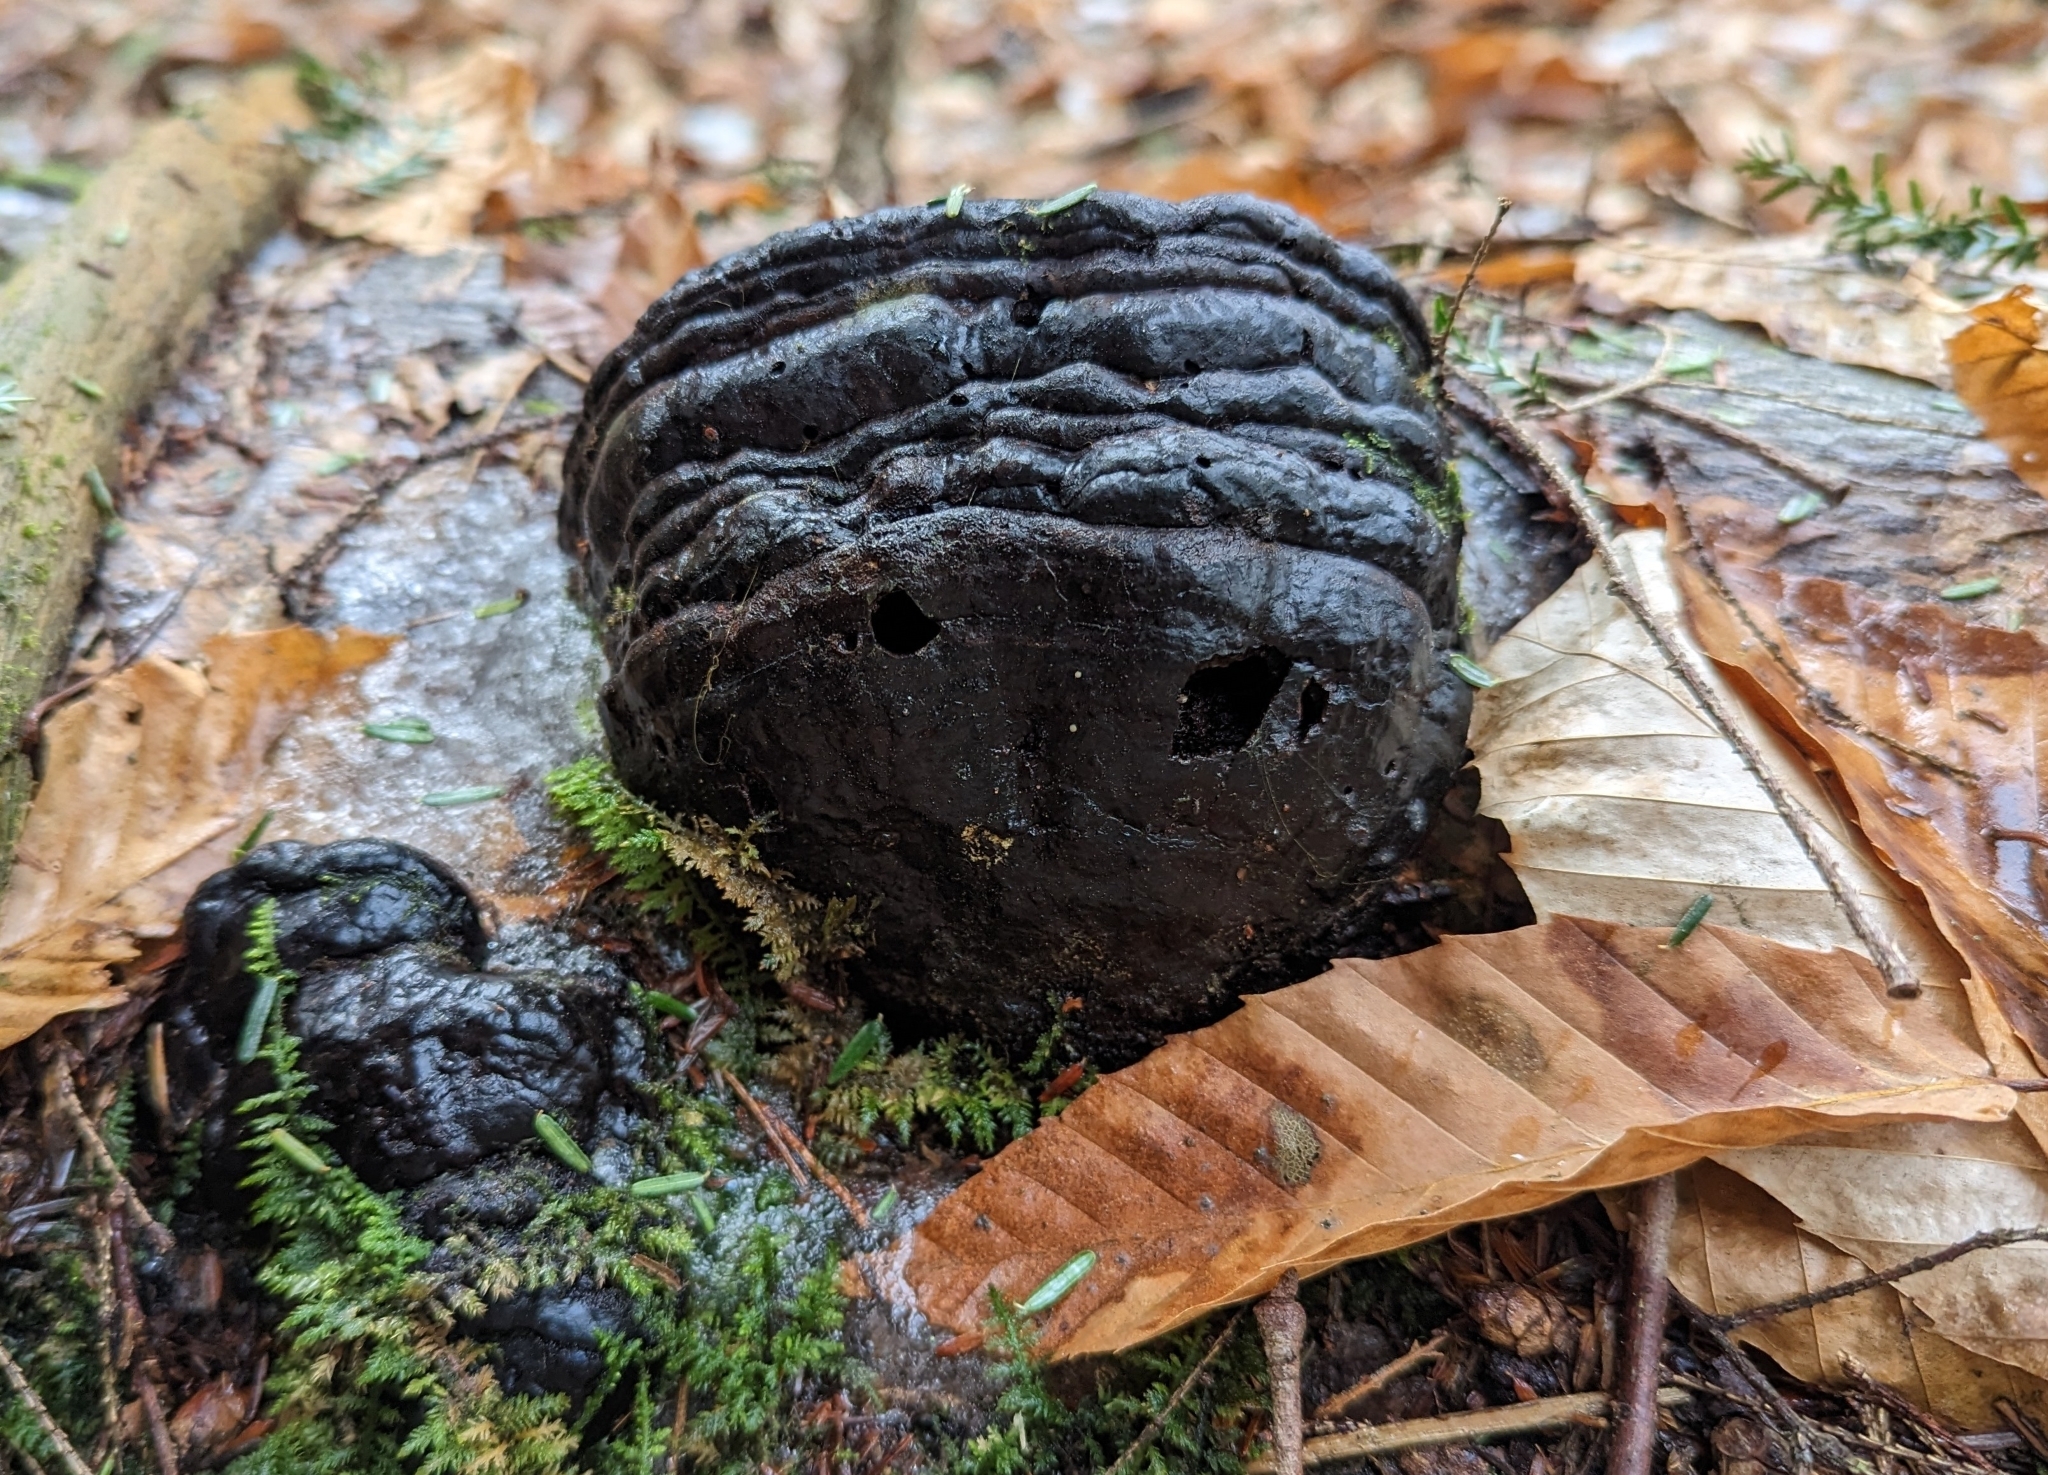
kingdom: Fungi
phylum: Basidiomycota
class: Agaricomycetes
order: Polyporales
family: Polyporaceae
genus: Fomes
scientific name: Fomes fomentarius
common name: Hoof fungus
